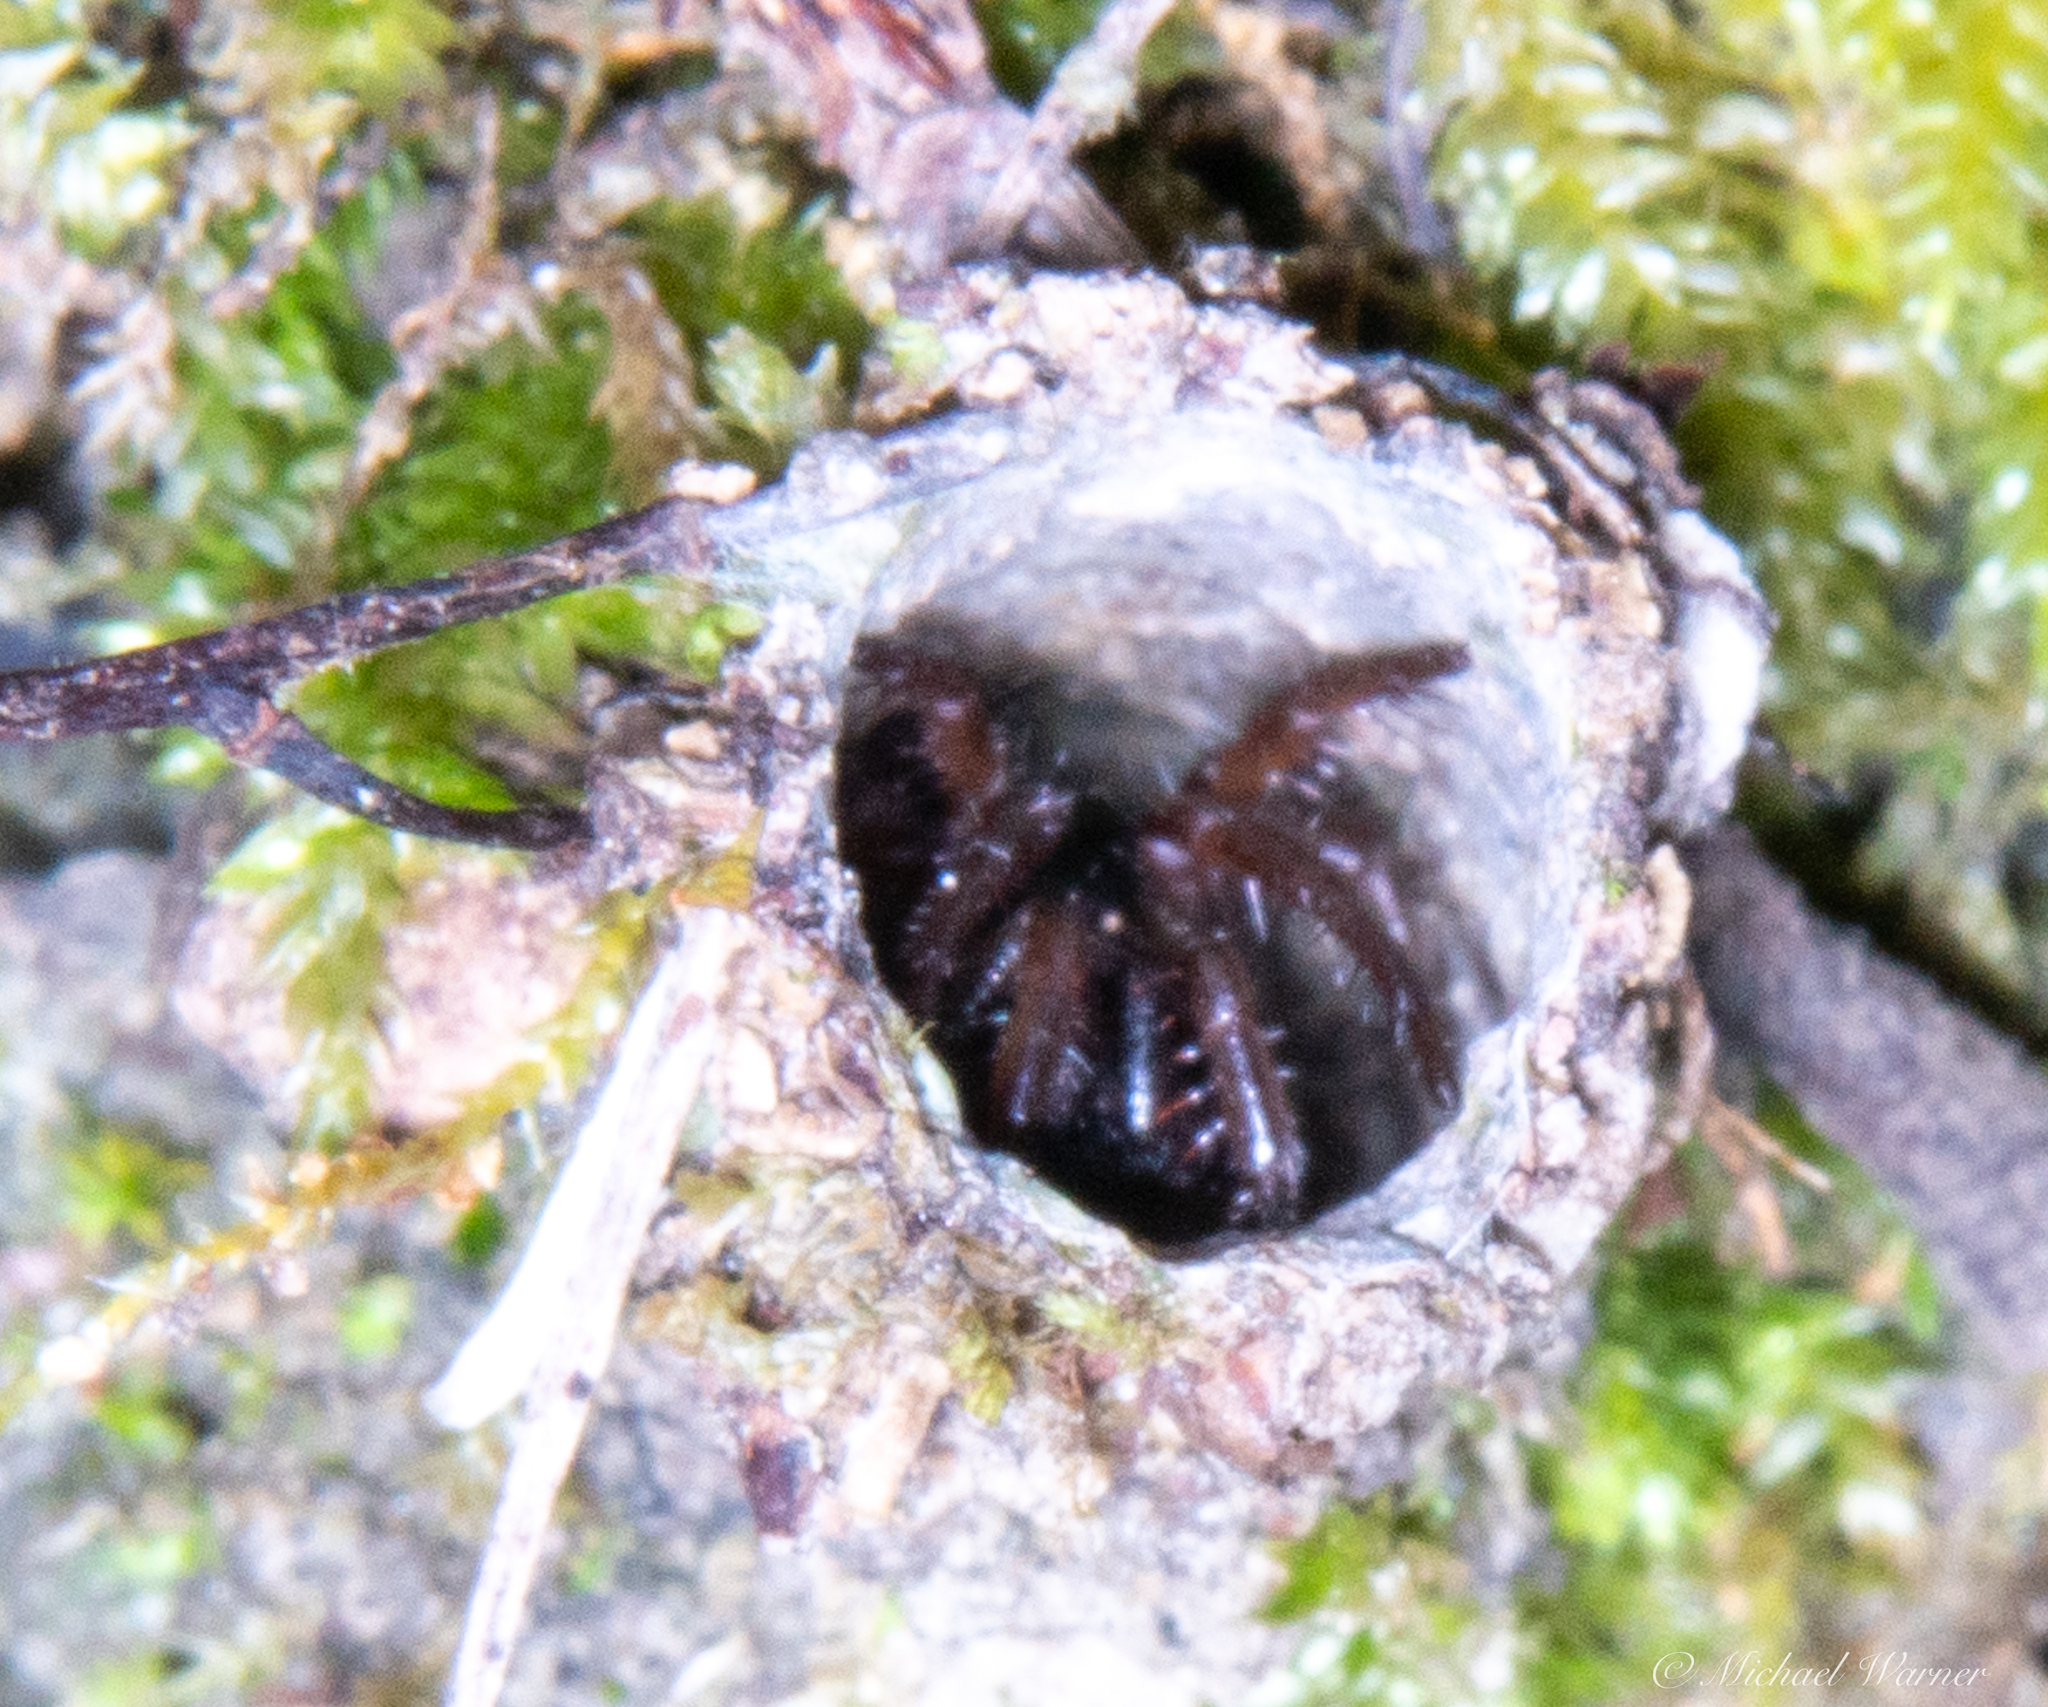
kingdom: Animalia
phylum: Arthropoda
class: Arachnida
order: Araneae
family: Antrodiaetidae
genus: Atypoides
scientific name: Atypoides riversi
